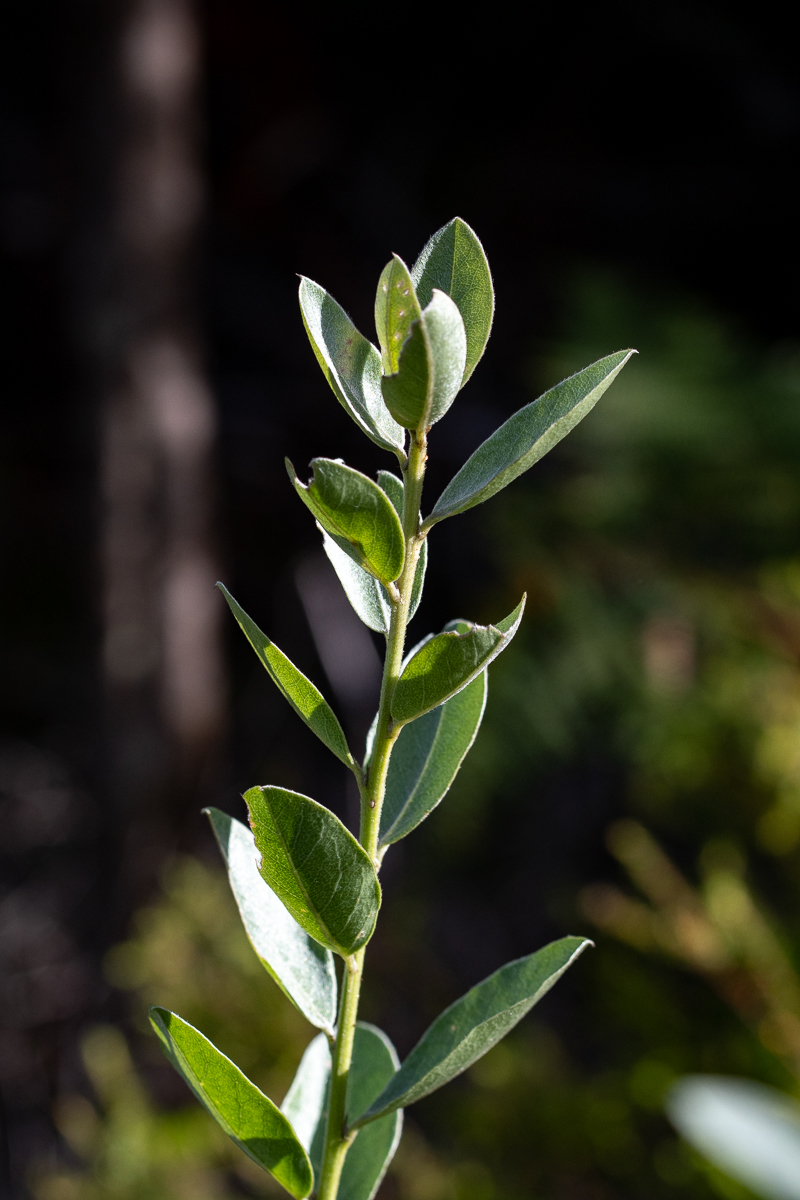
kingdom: Plantae
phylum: Tracheophyta
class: Magnoliopsida
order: Fabales
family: Fabaceae
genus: Podalyria
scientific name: Podalyria calyptrata
